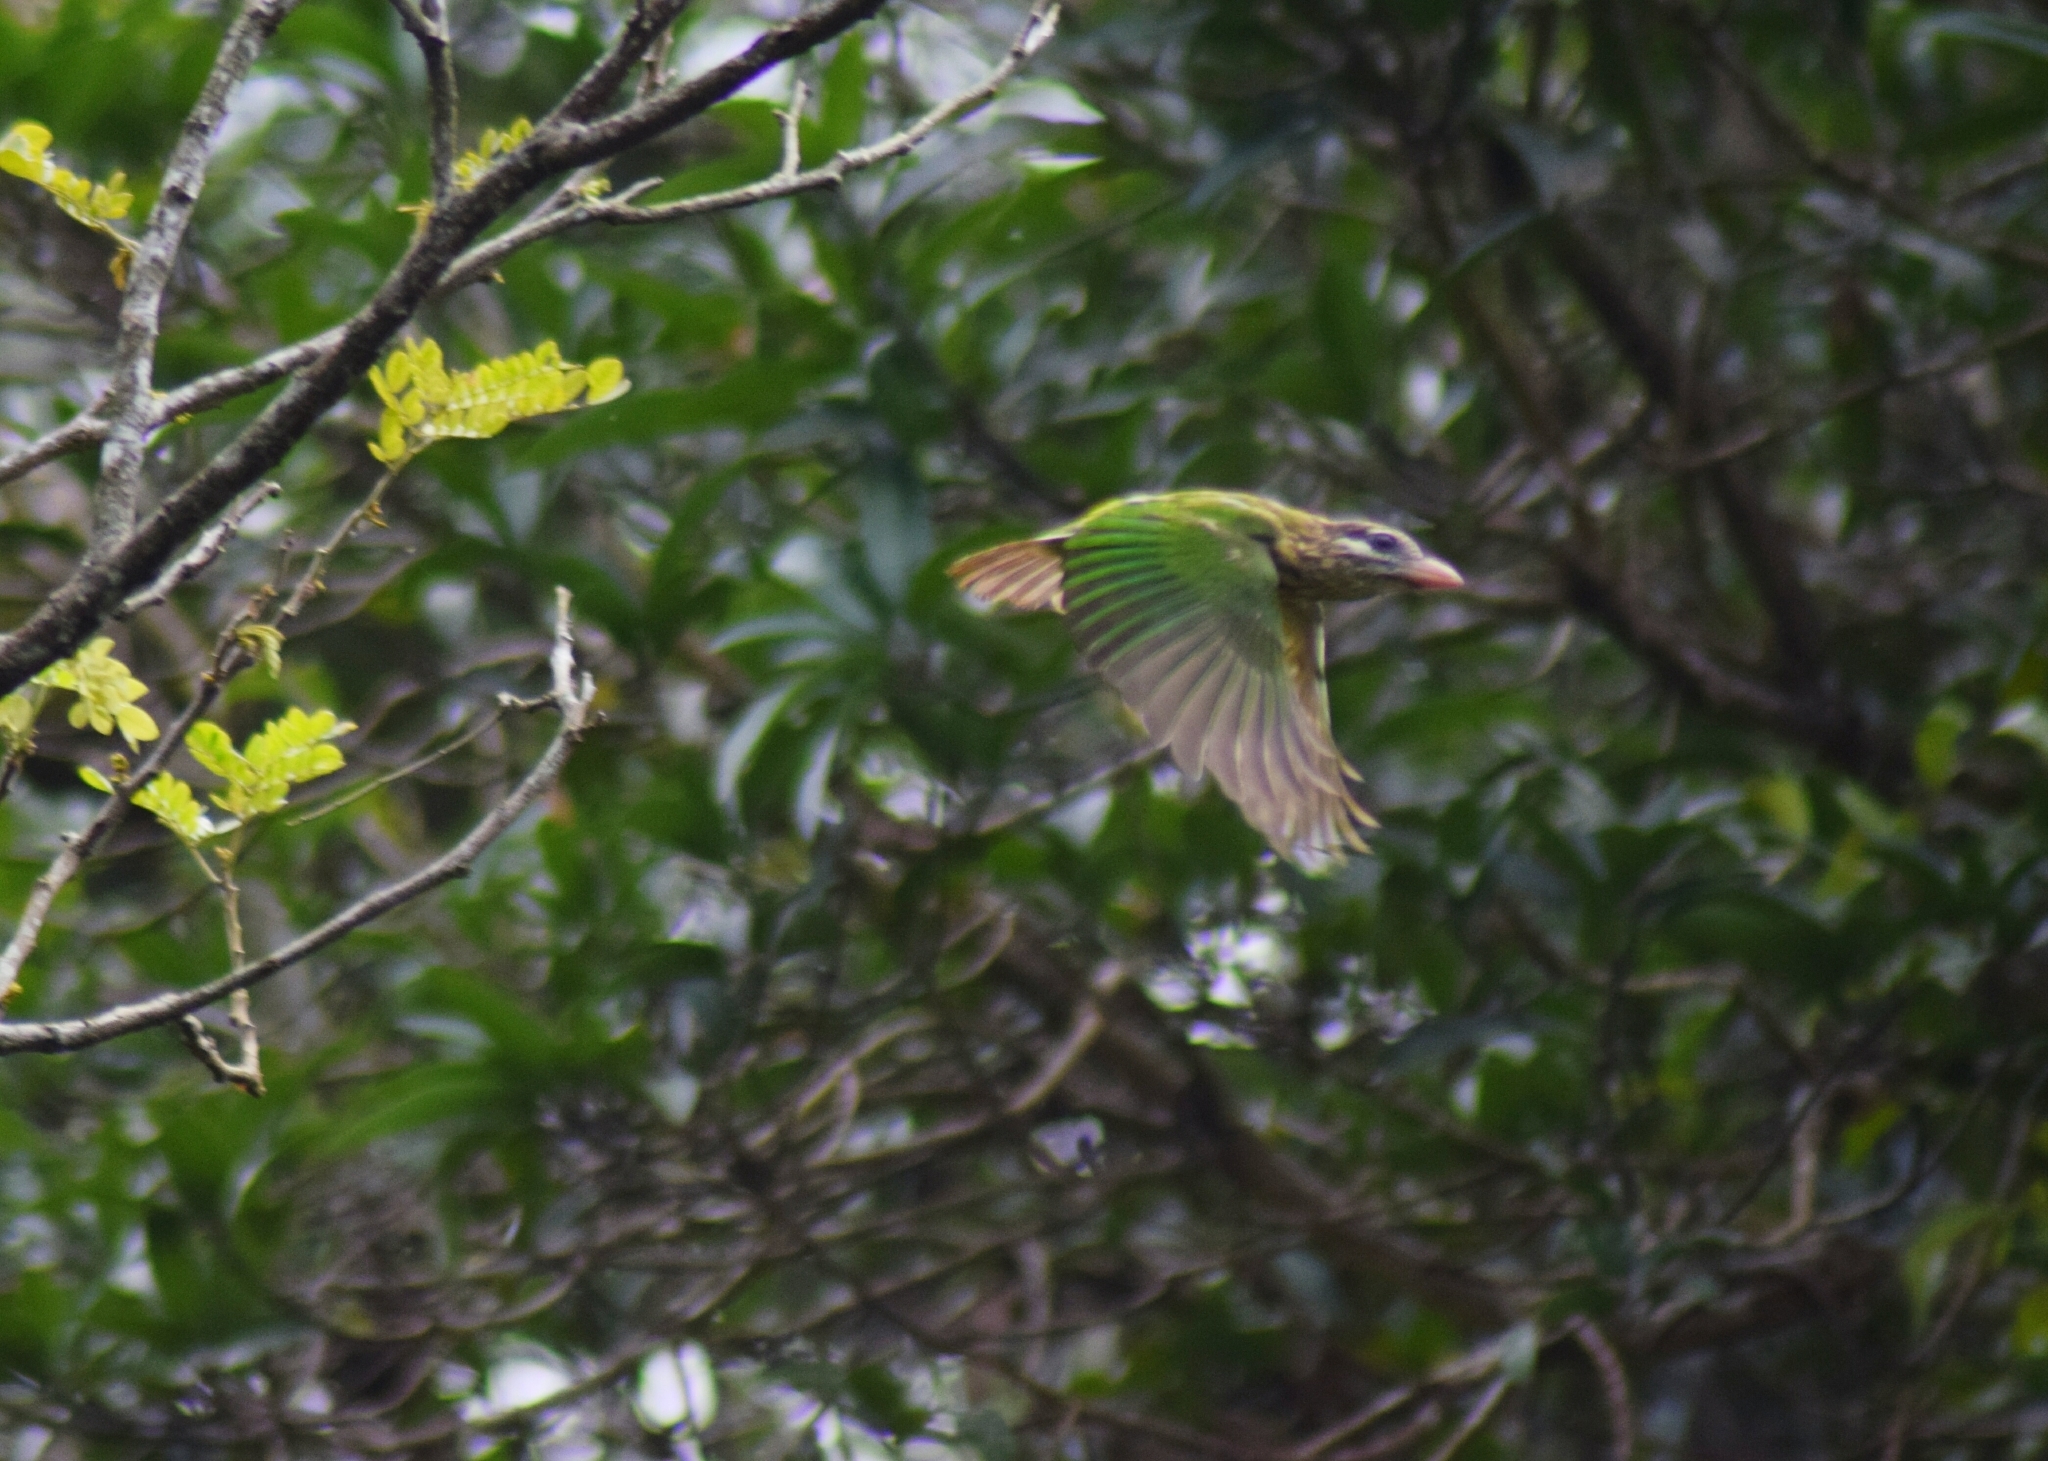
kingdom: Animalia
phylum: Chordata
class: Aves
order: Piciformes
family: Megalaimidae
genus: Psilopogon
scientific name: Psilopogon viridis
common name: White-cheeked barbet
